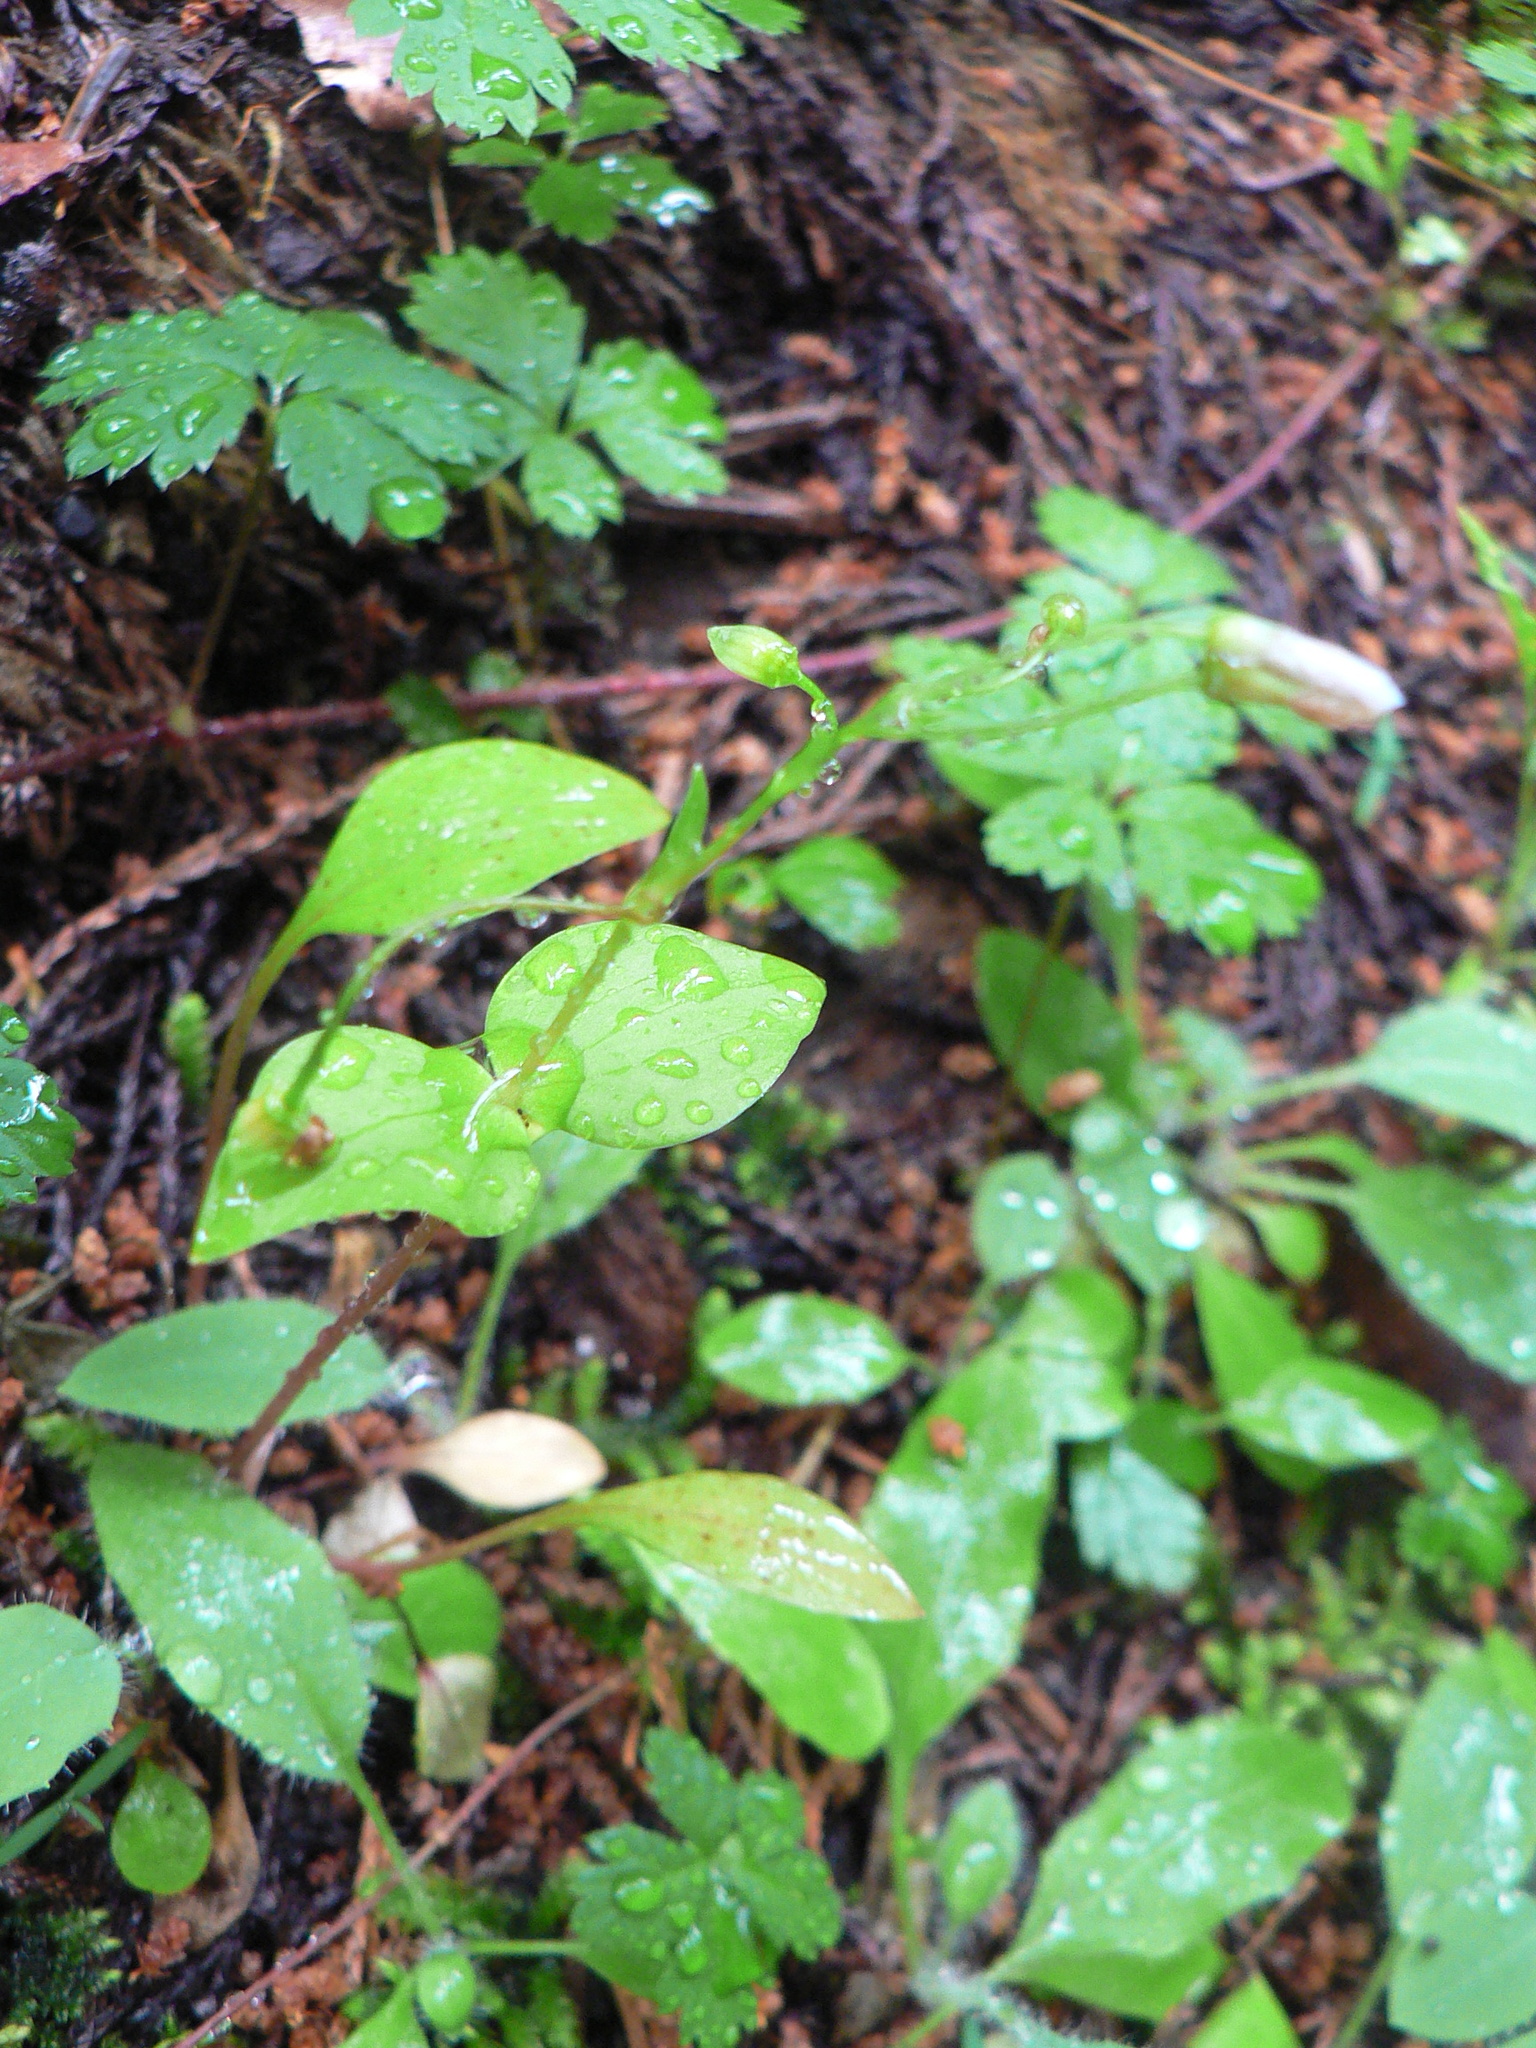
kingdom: Plantae
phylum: Tracheophyta
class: Magnoliopsida
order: Caryophyllales
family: Montiaceae
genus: Claytonia
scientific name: Claytonia sibirica
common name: Pink purslane
